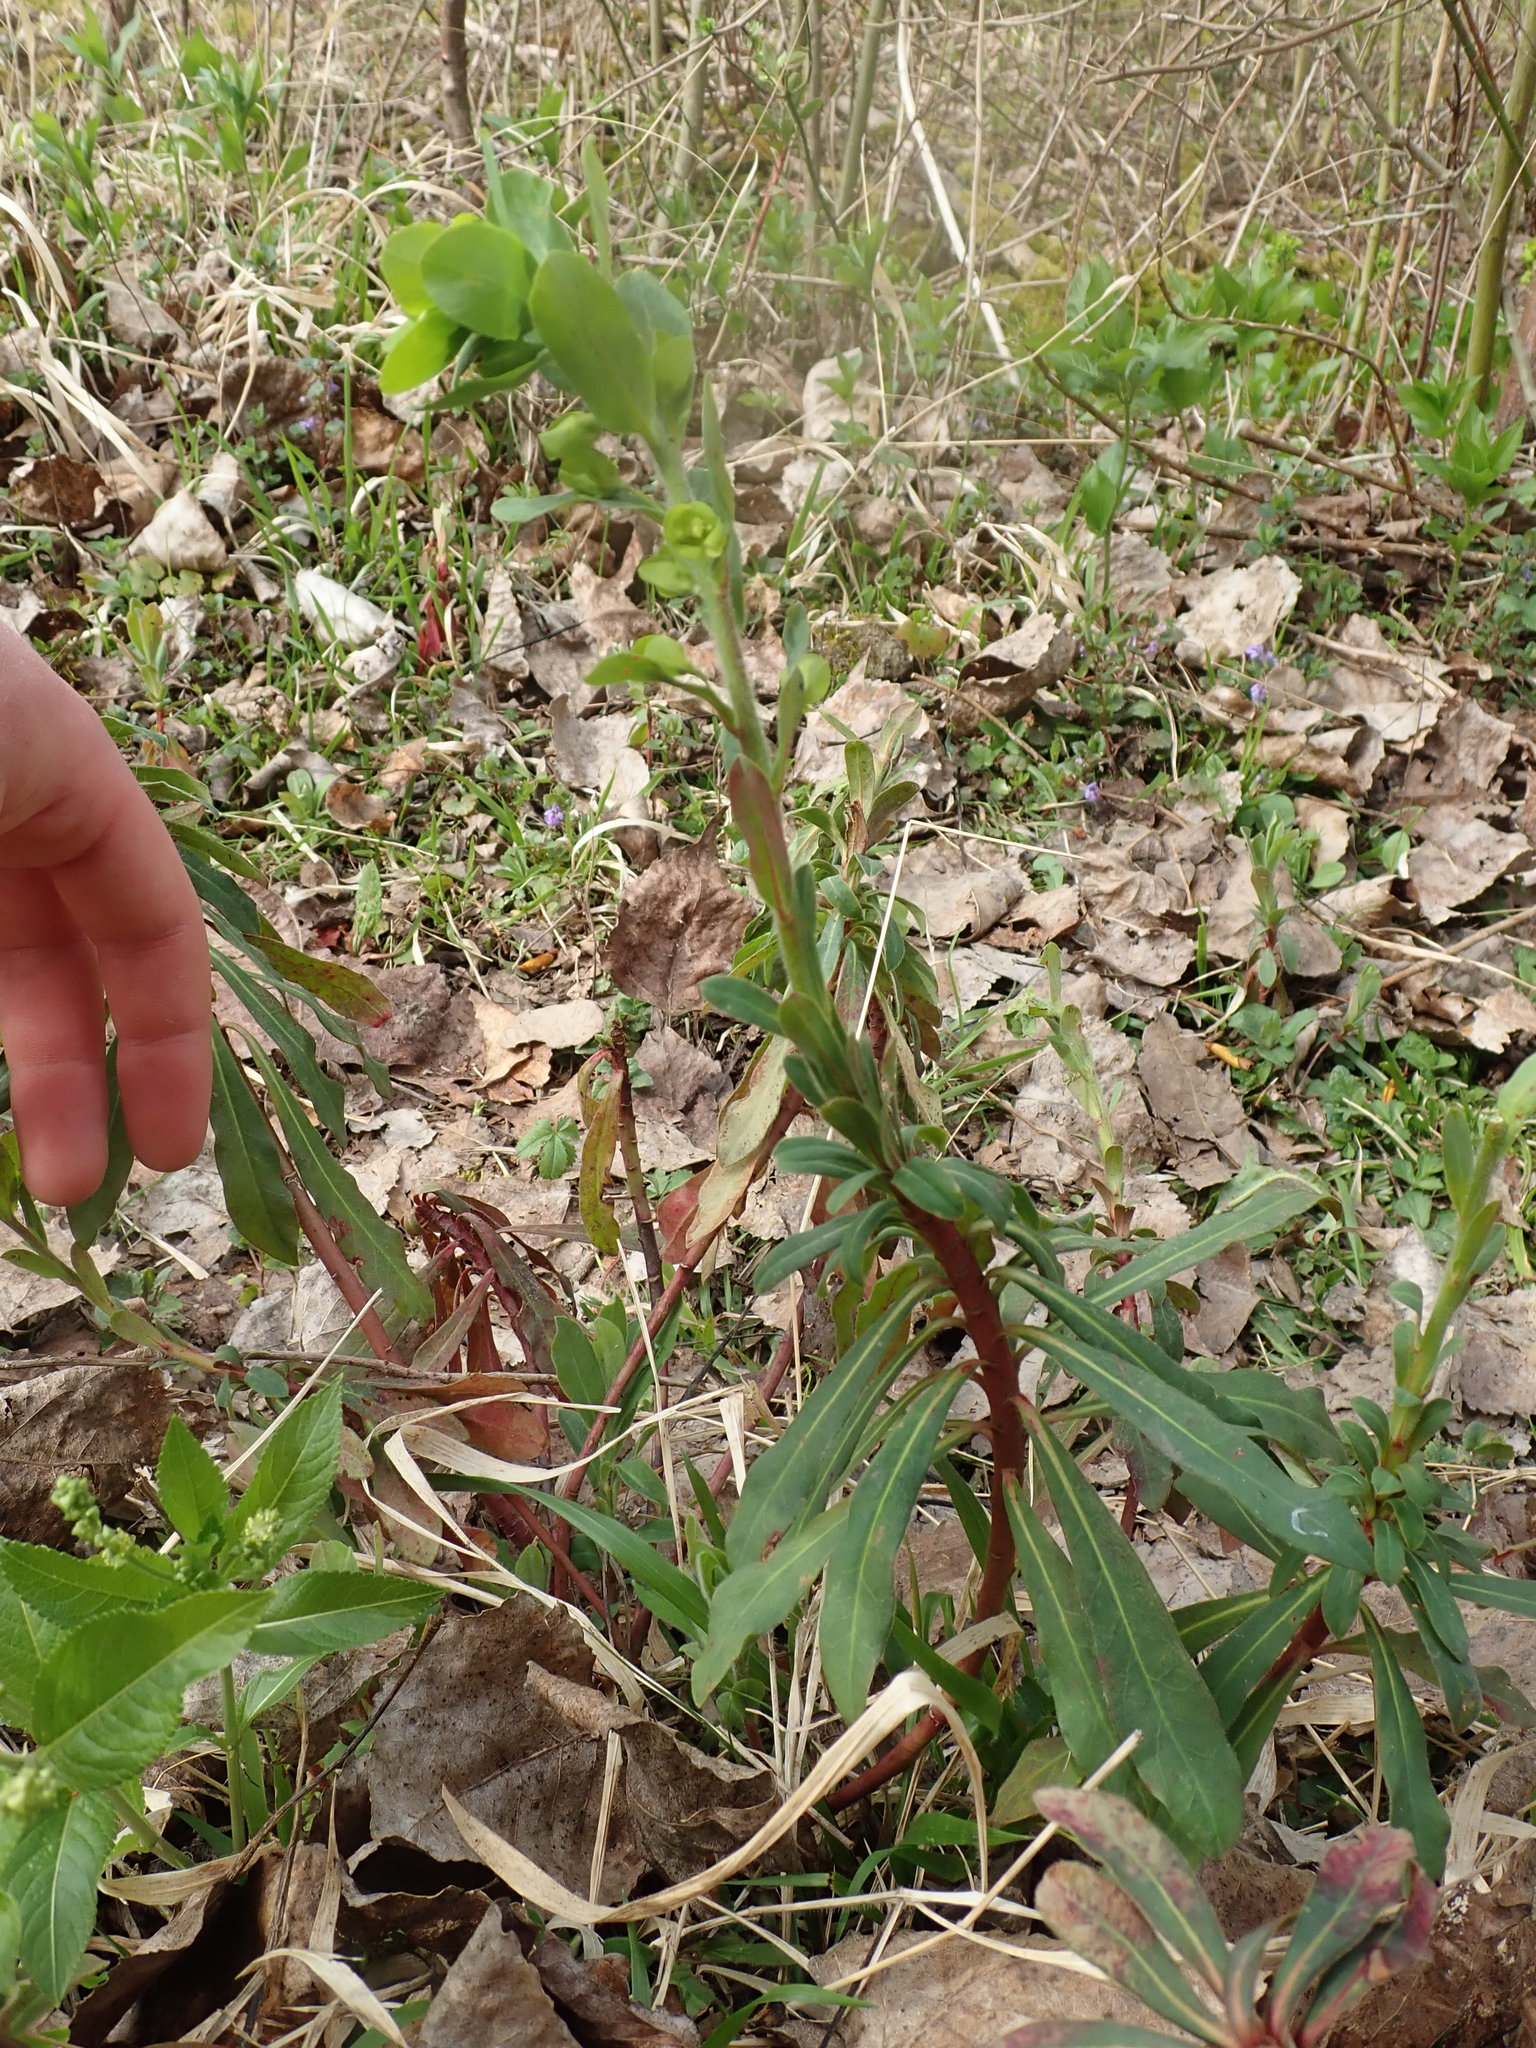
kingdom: Plantae
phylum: Tracheophyta
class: Magnoliopsida
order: Malpighiales
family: Euphorbiaceae
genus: Euphorbia
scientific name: Euphorbia amygdaloides
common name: Wood spurge
